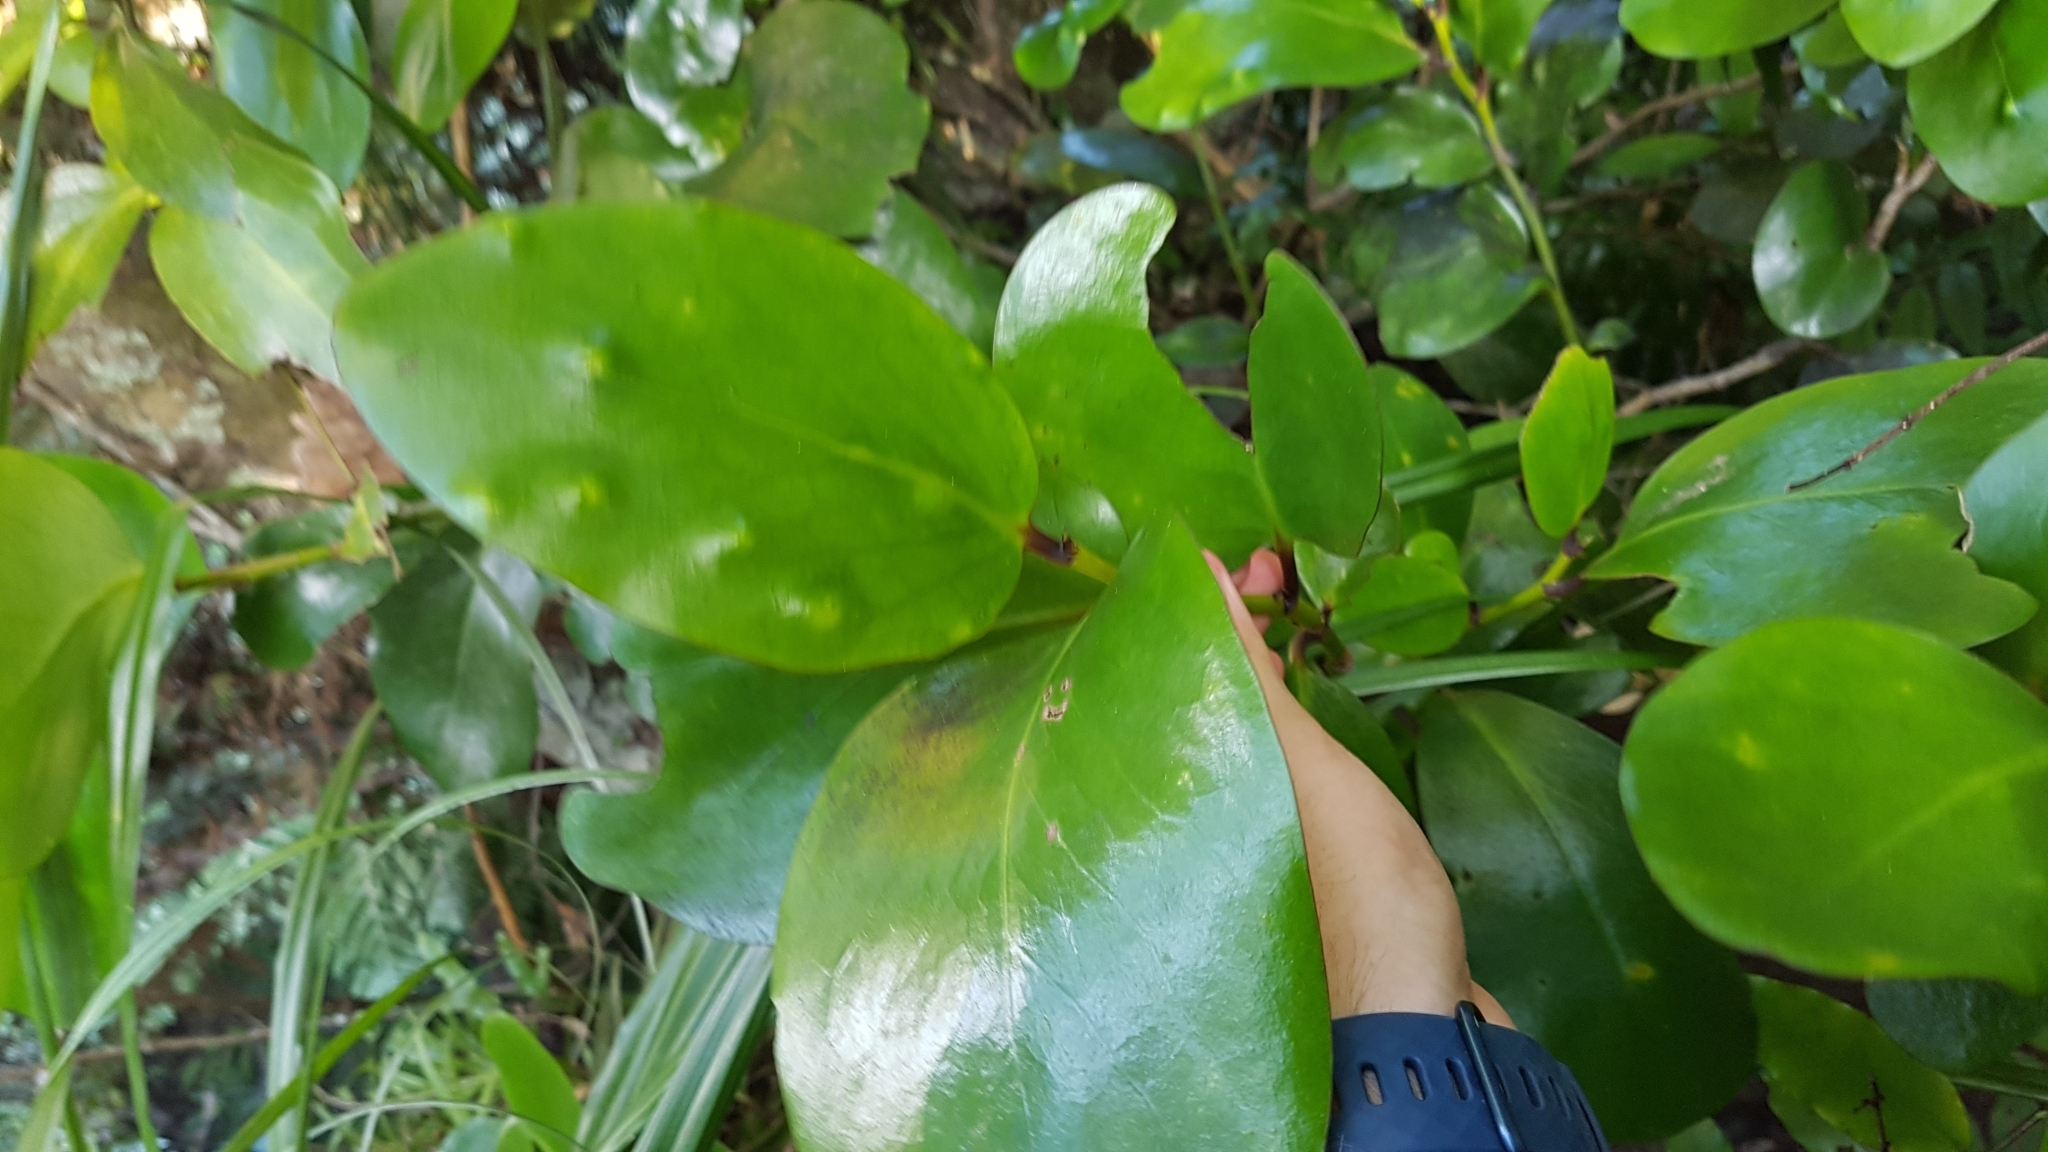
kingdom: Plantae
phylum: Tracheophyta
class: Magnoliopsida
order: Apiales
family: Griseliniaceae
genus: Griselinia
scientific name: Griselinia lucida
